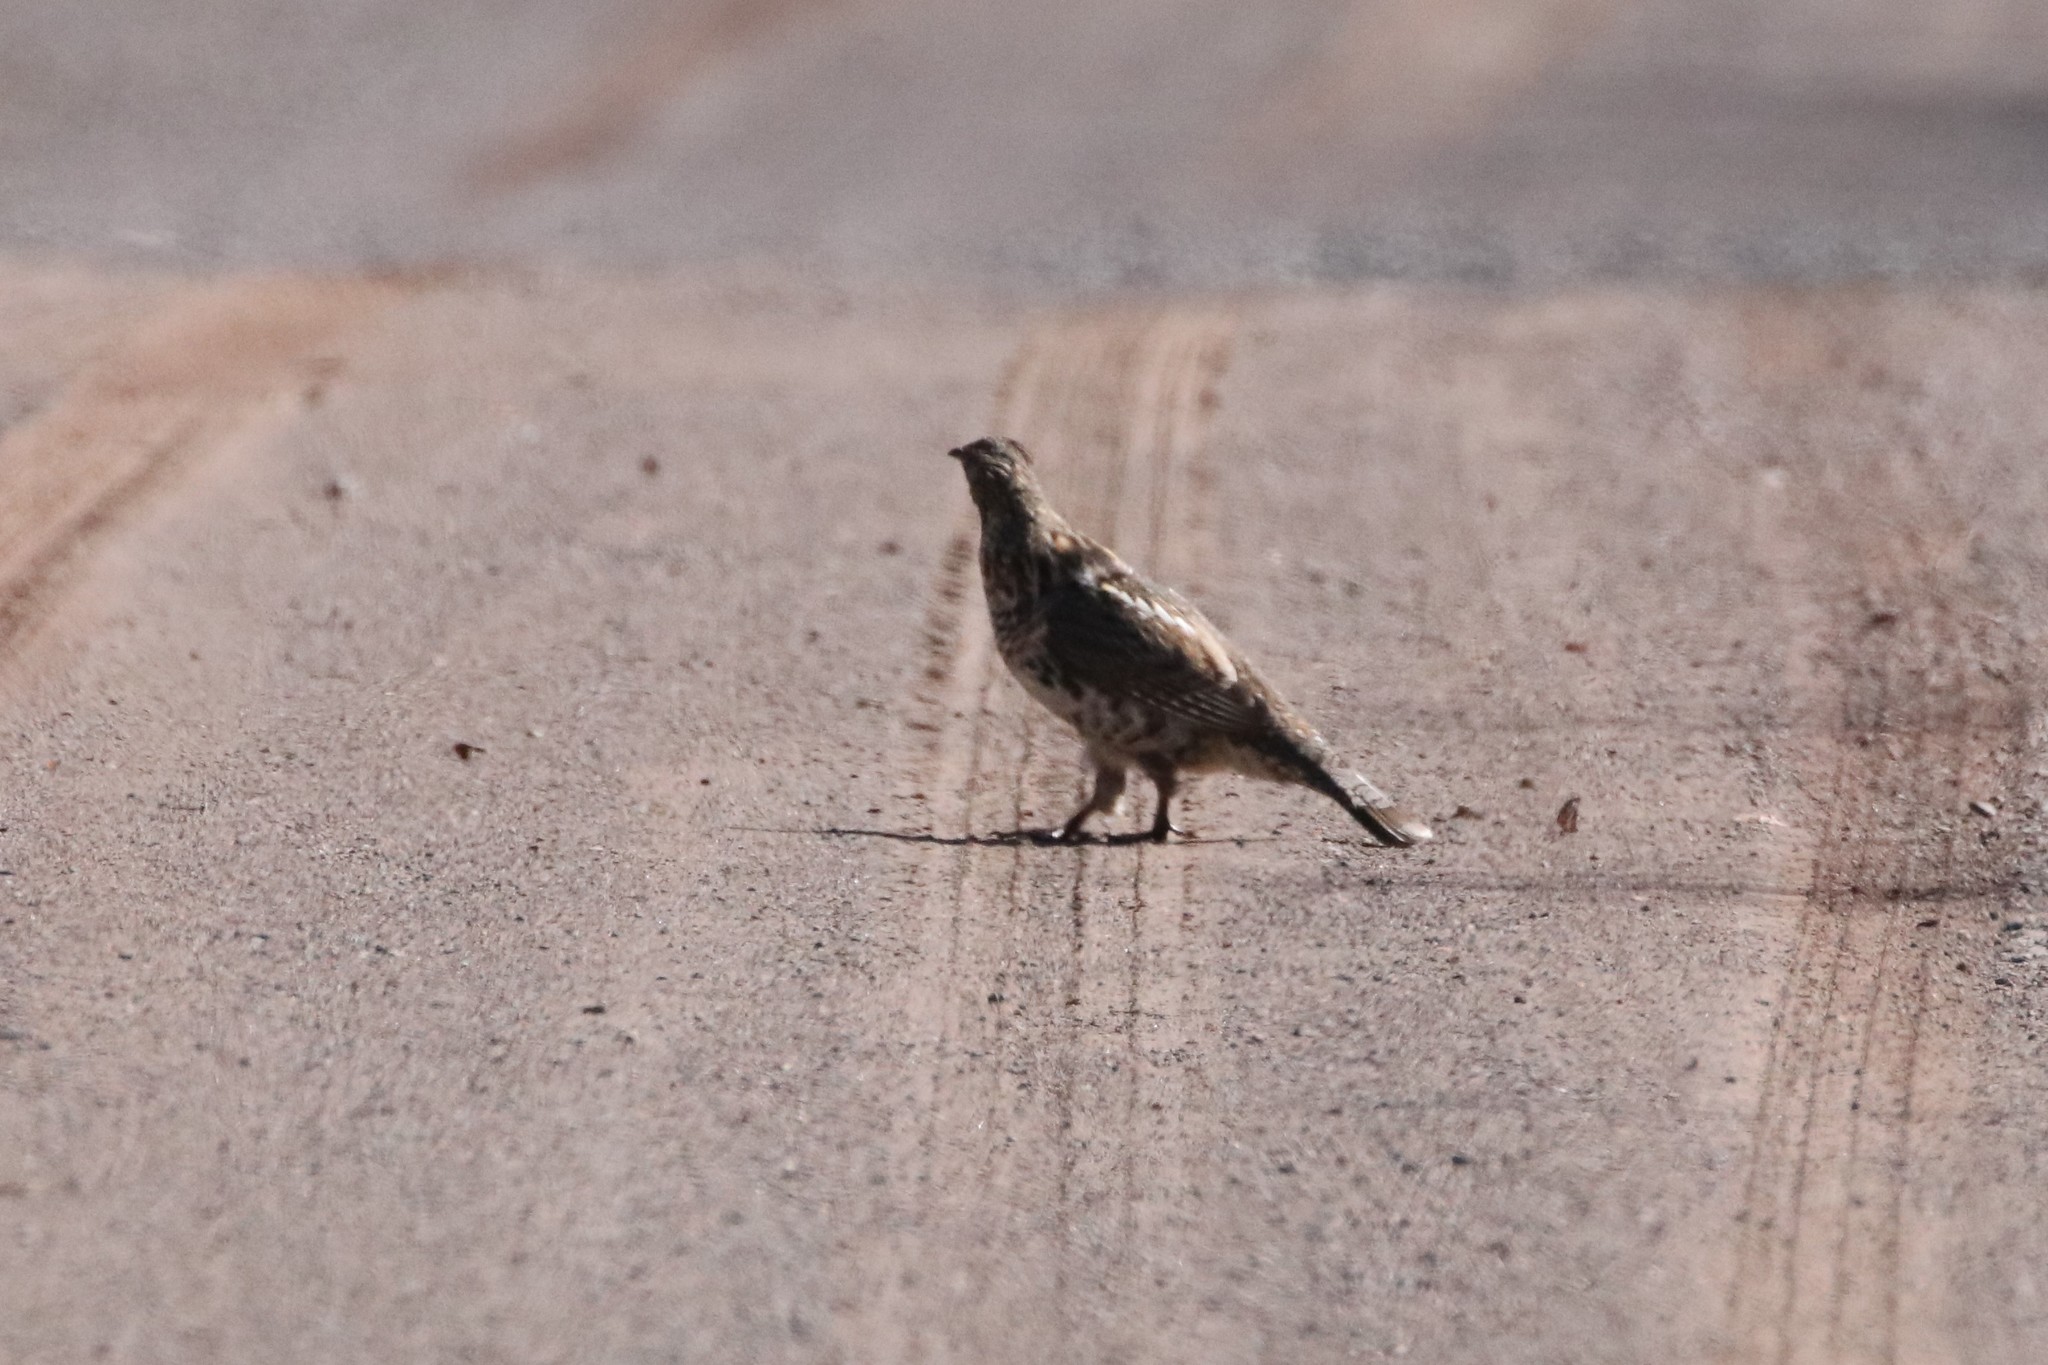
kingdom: Animalia
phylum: Chordata
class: Aves
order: Galliformes
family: Phasianidae
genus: Bonasa
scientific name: Bonasa umbellus
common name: Ruffed grouse
